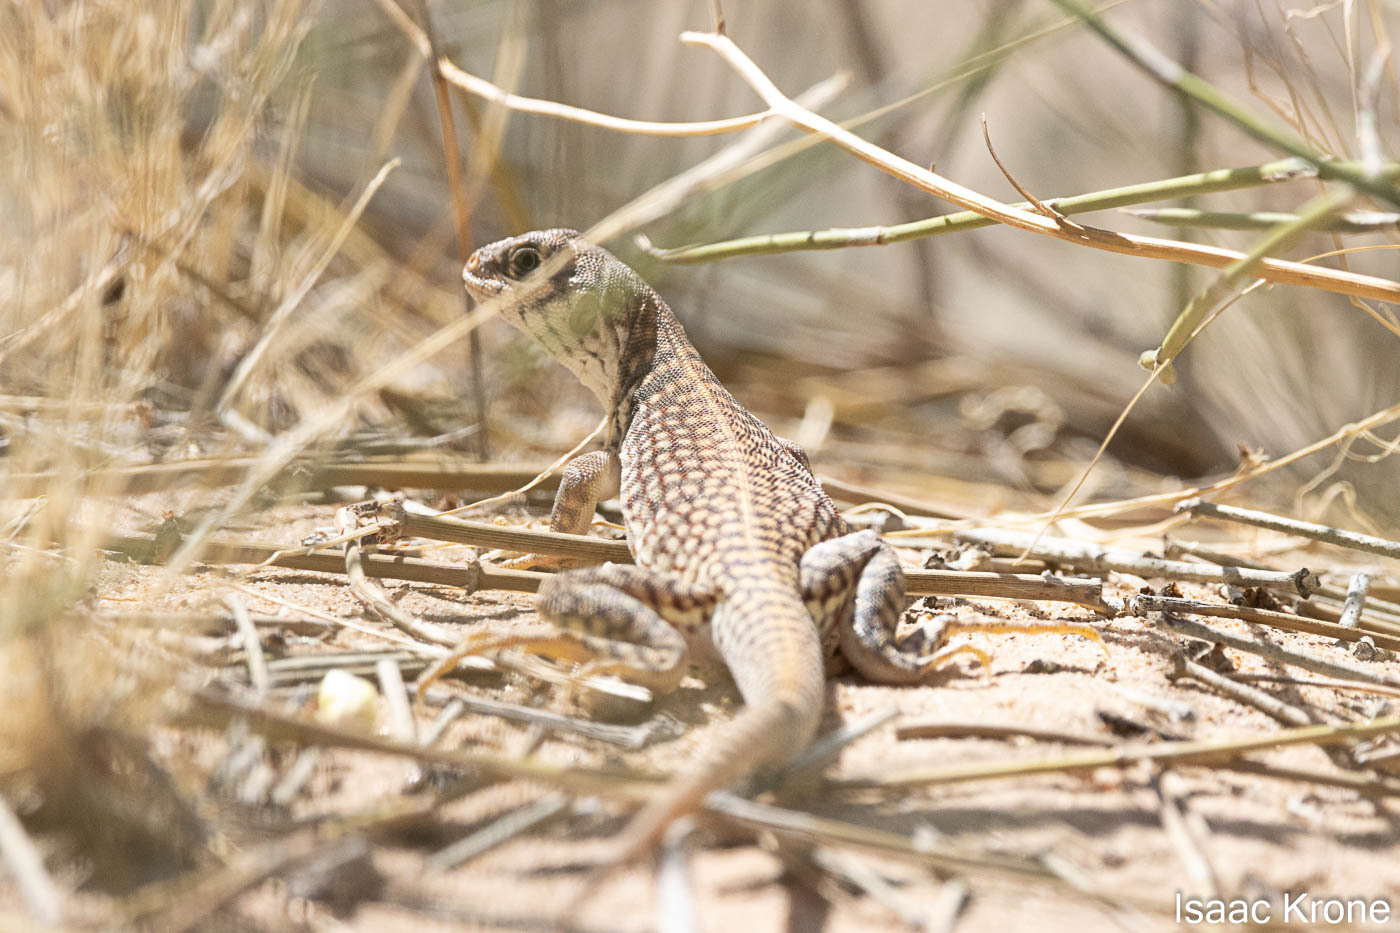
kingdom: Animalia
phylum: Chordata
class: Squamata
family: Iguanidae
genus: Dipsosaurus
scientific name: Dipsosaurus dorsalis
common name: Desert iguana
